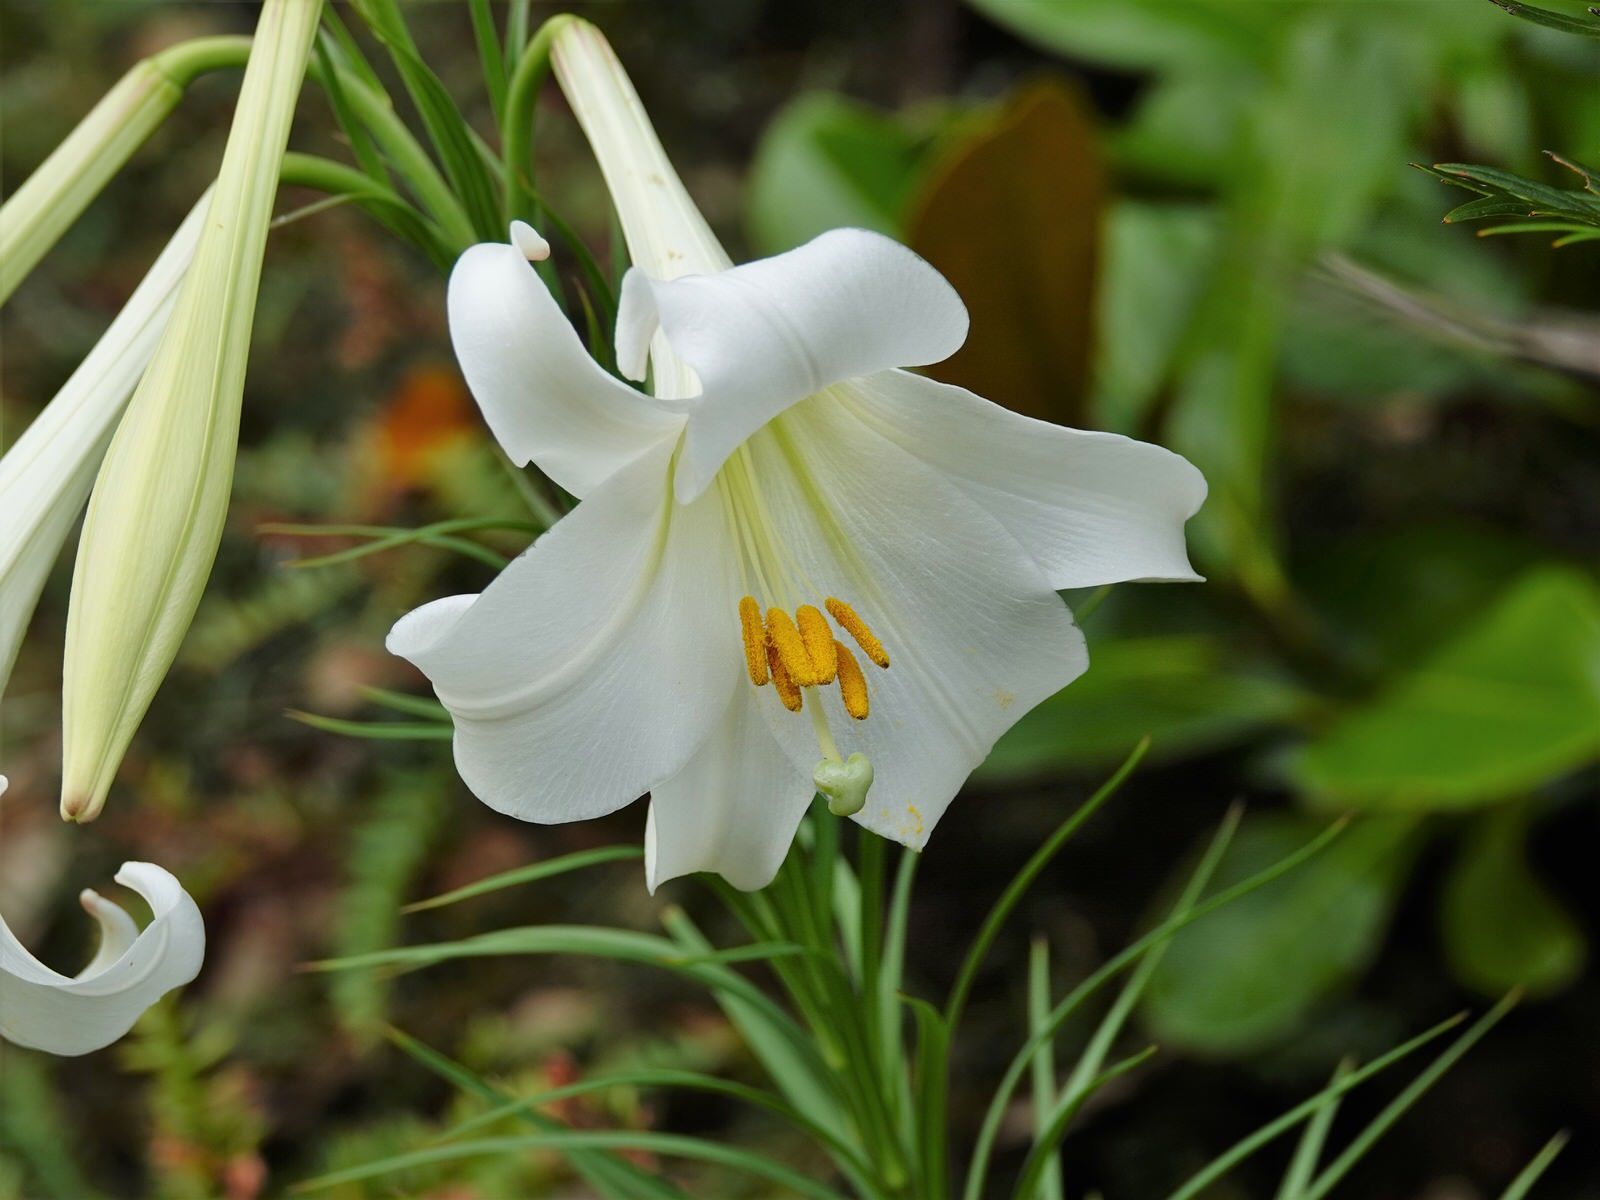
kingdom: Plantae
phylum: Tracheophyta
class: Liliopsida
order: Liliales
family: Liliaceae
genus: Lilium
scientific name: Lilium formosanum
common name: Formosa lily
